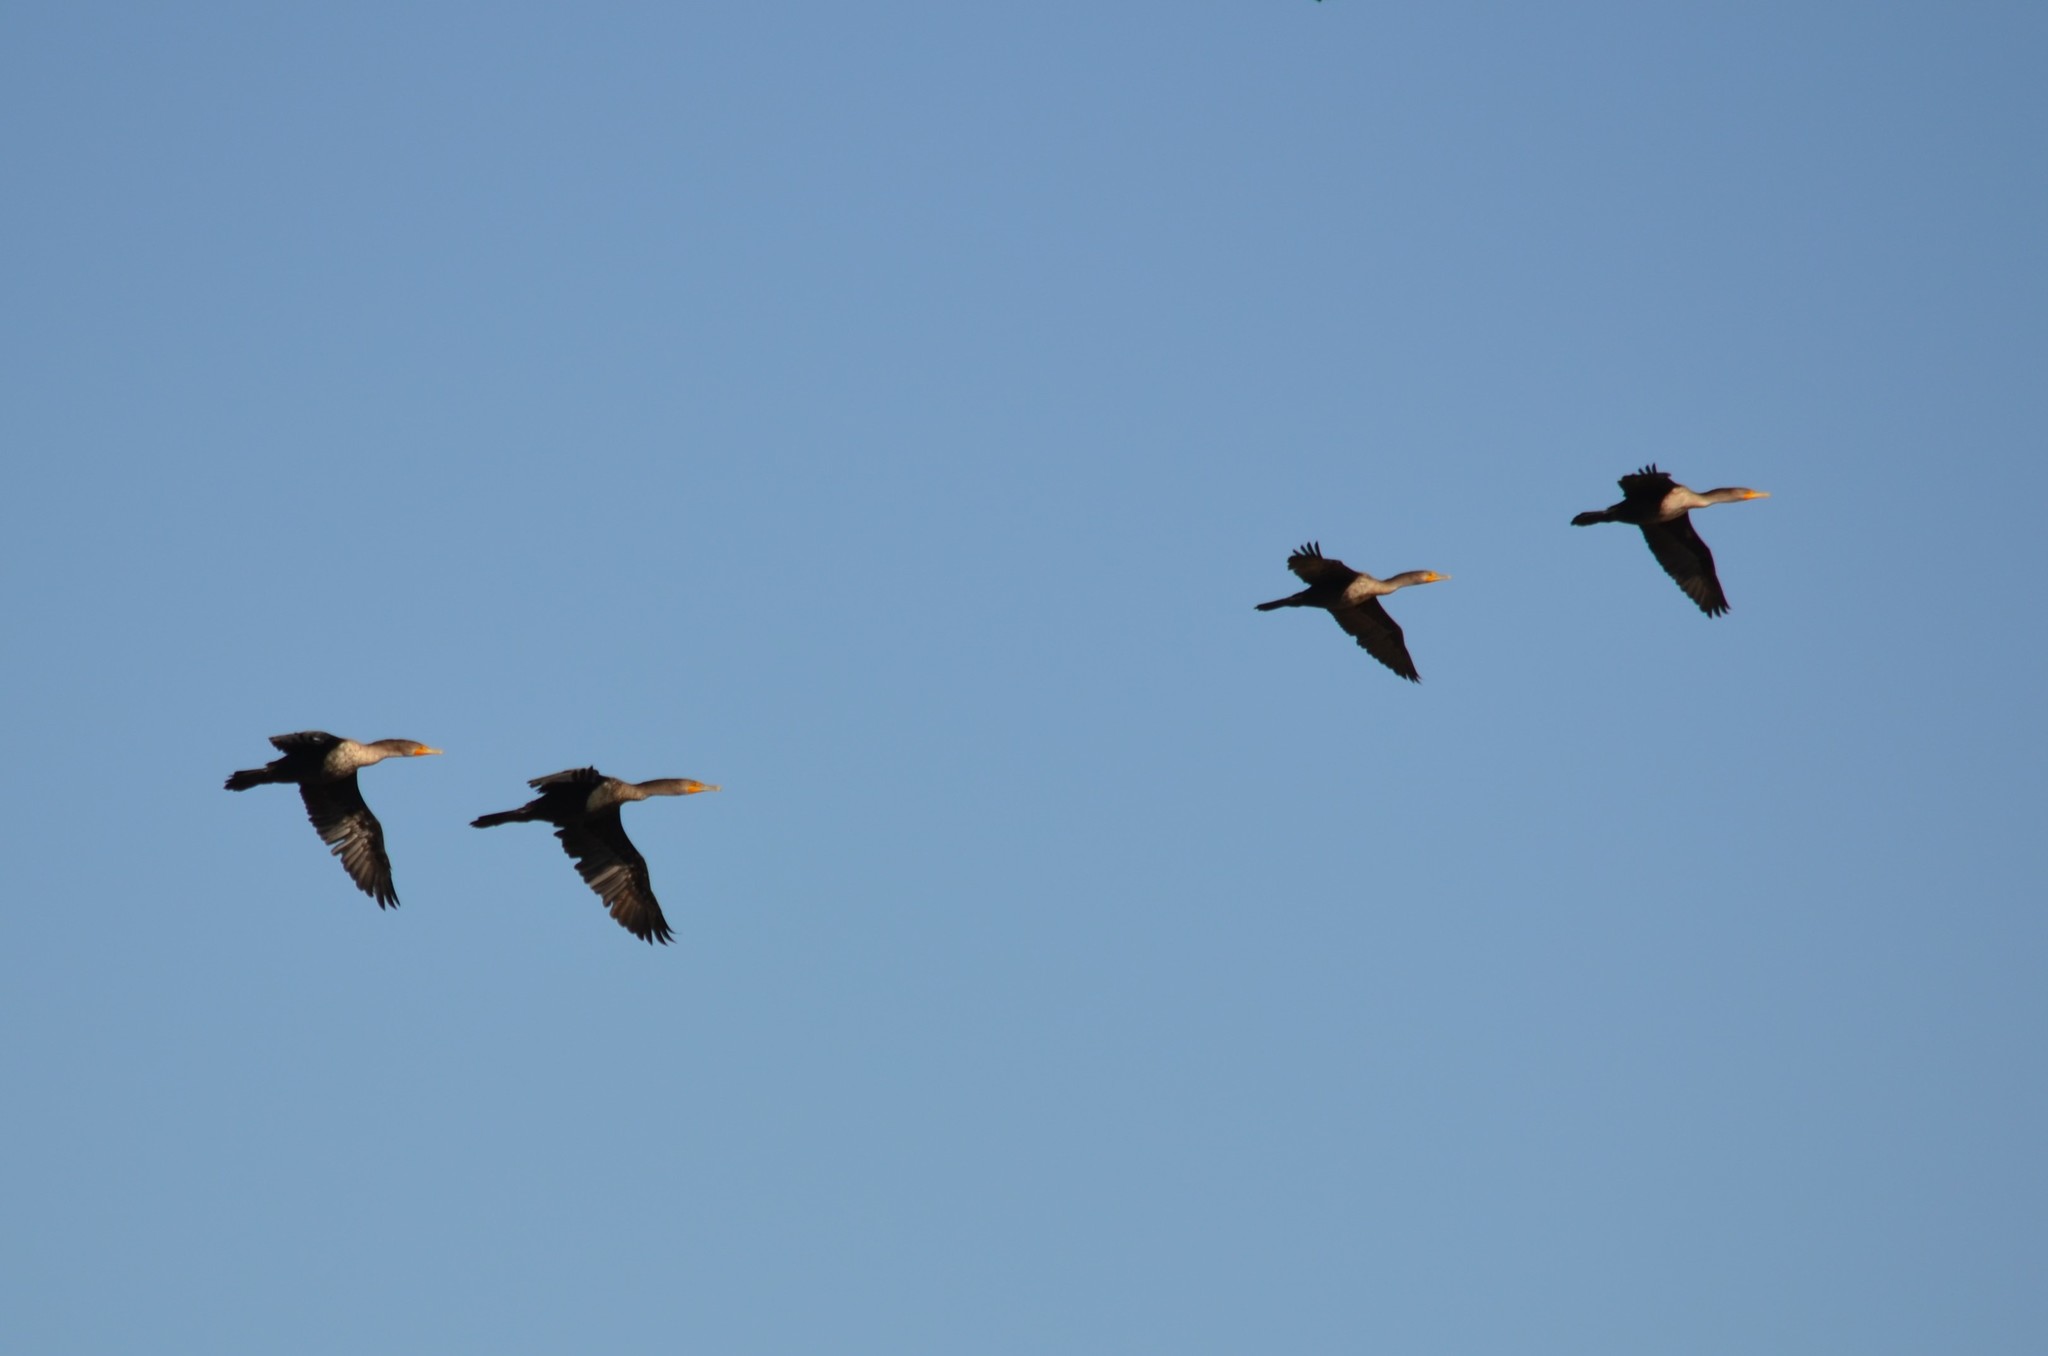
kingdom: Animalia
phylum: Chordata
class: Aves
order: Suliformes
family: Phalacrocoracidae
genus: Phalacrocorax
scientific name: Phalacrocorax auritus
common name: Double-crested cormorant
